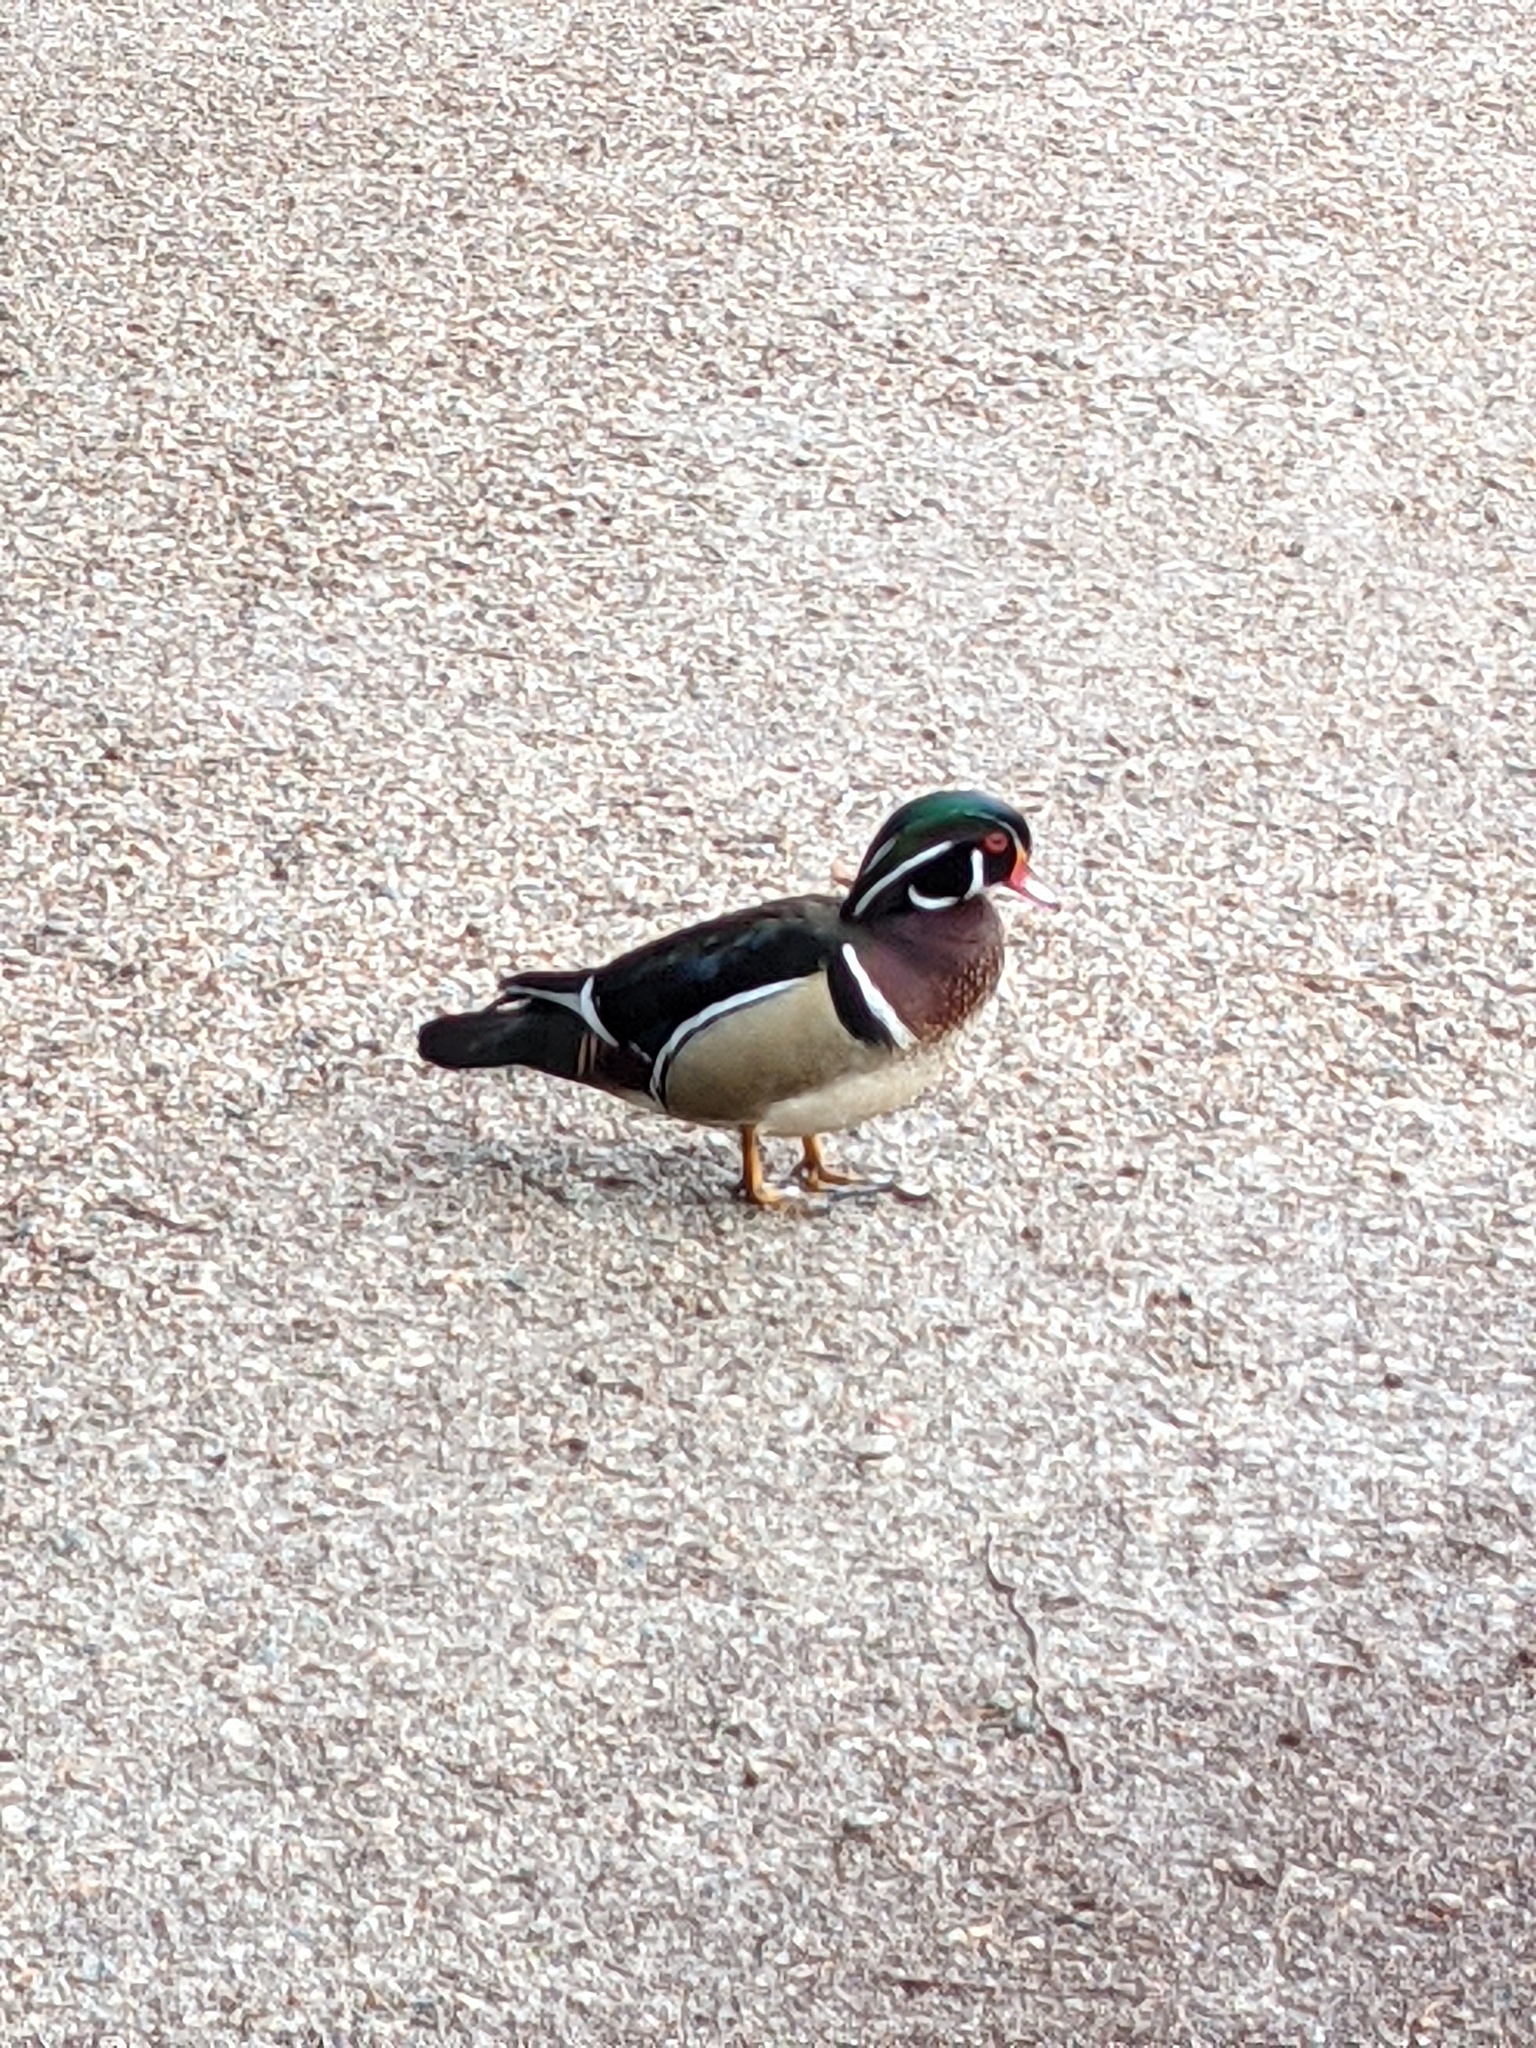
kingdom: Animalia
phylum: Chordata
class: Aves
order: Anseriformes
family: Anatidae
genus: Aix
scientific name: Aix sponsa
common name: Wood duck
